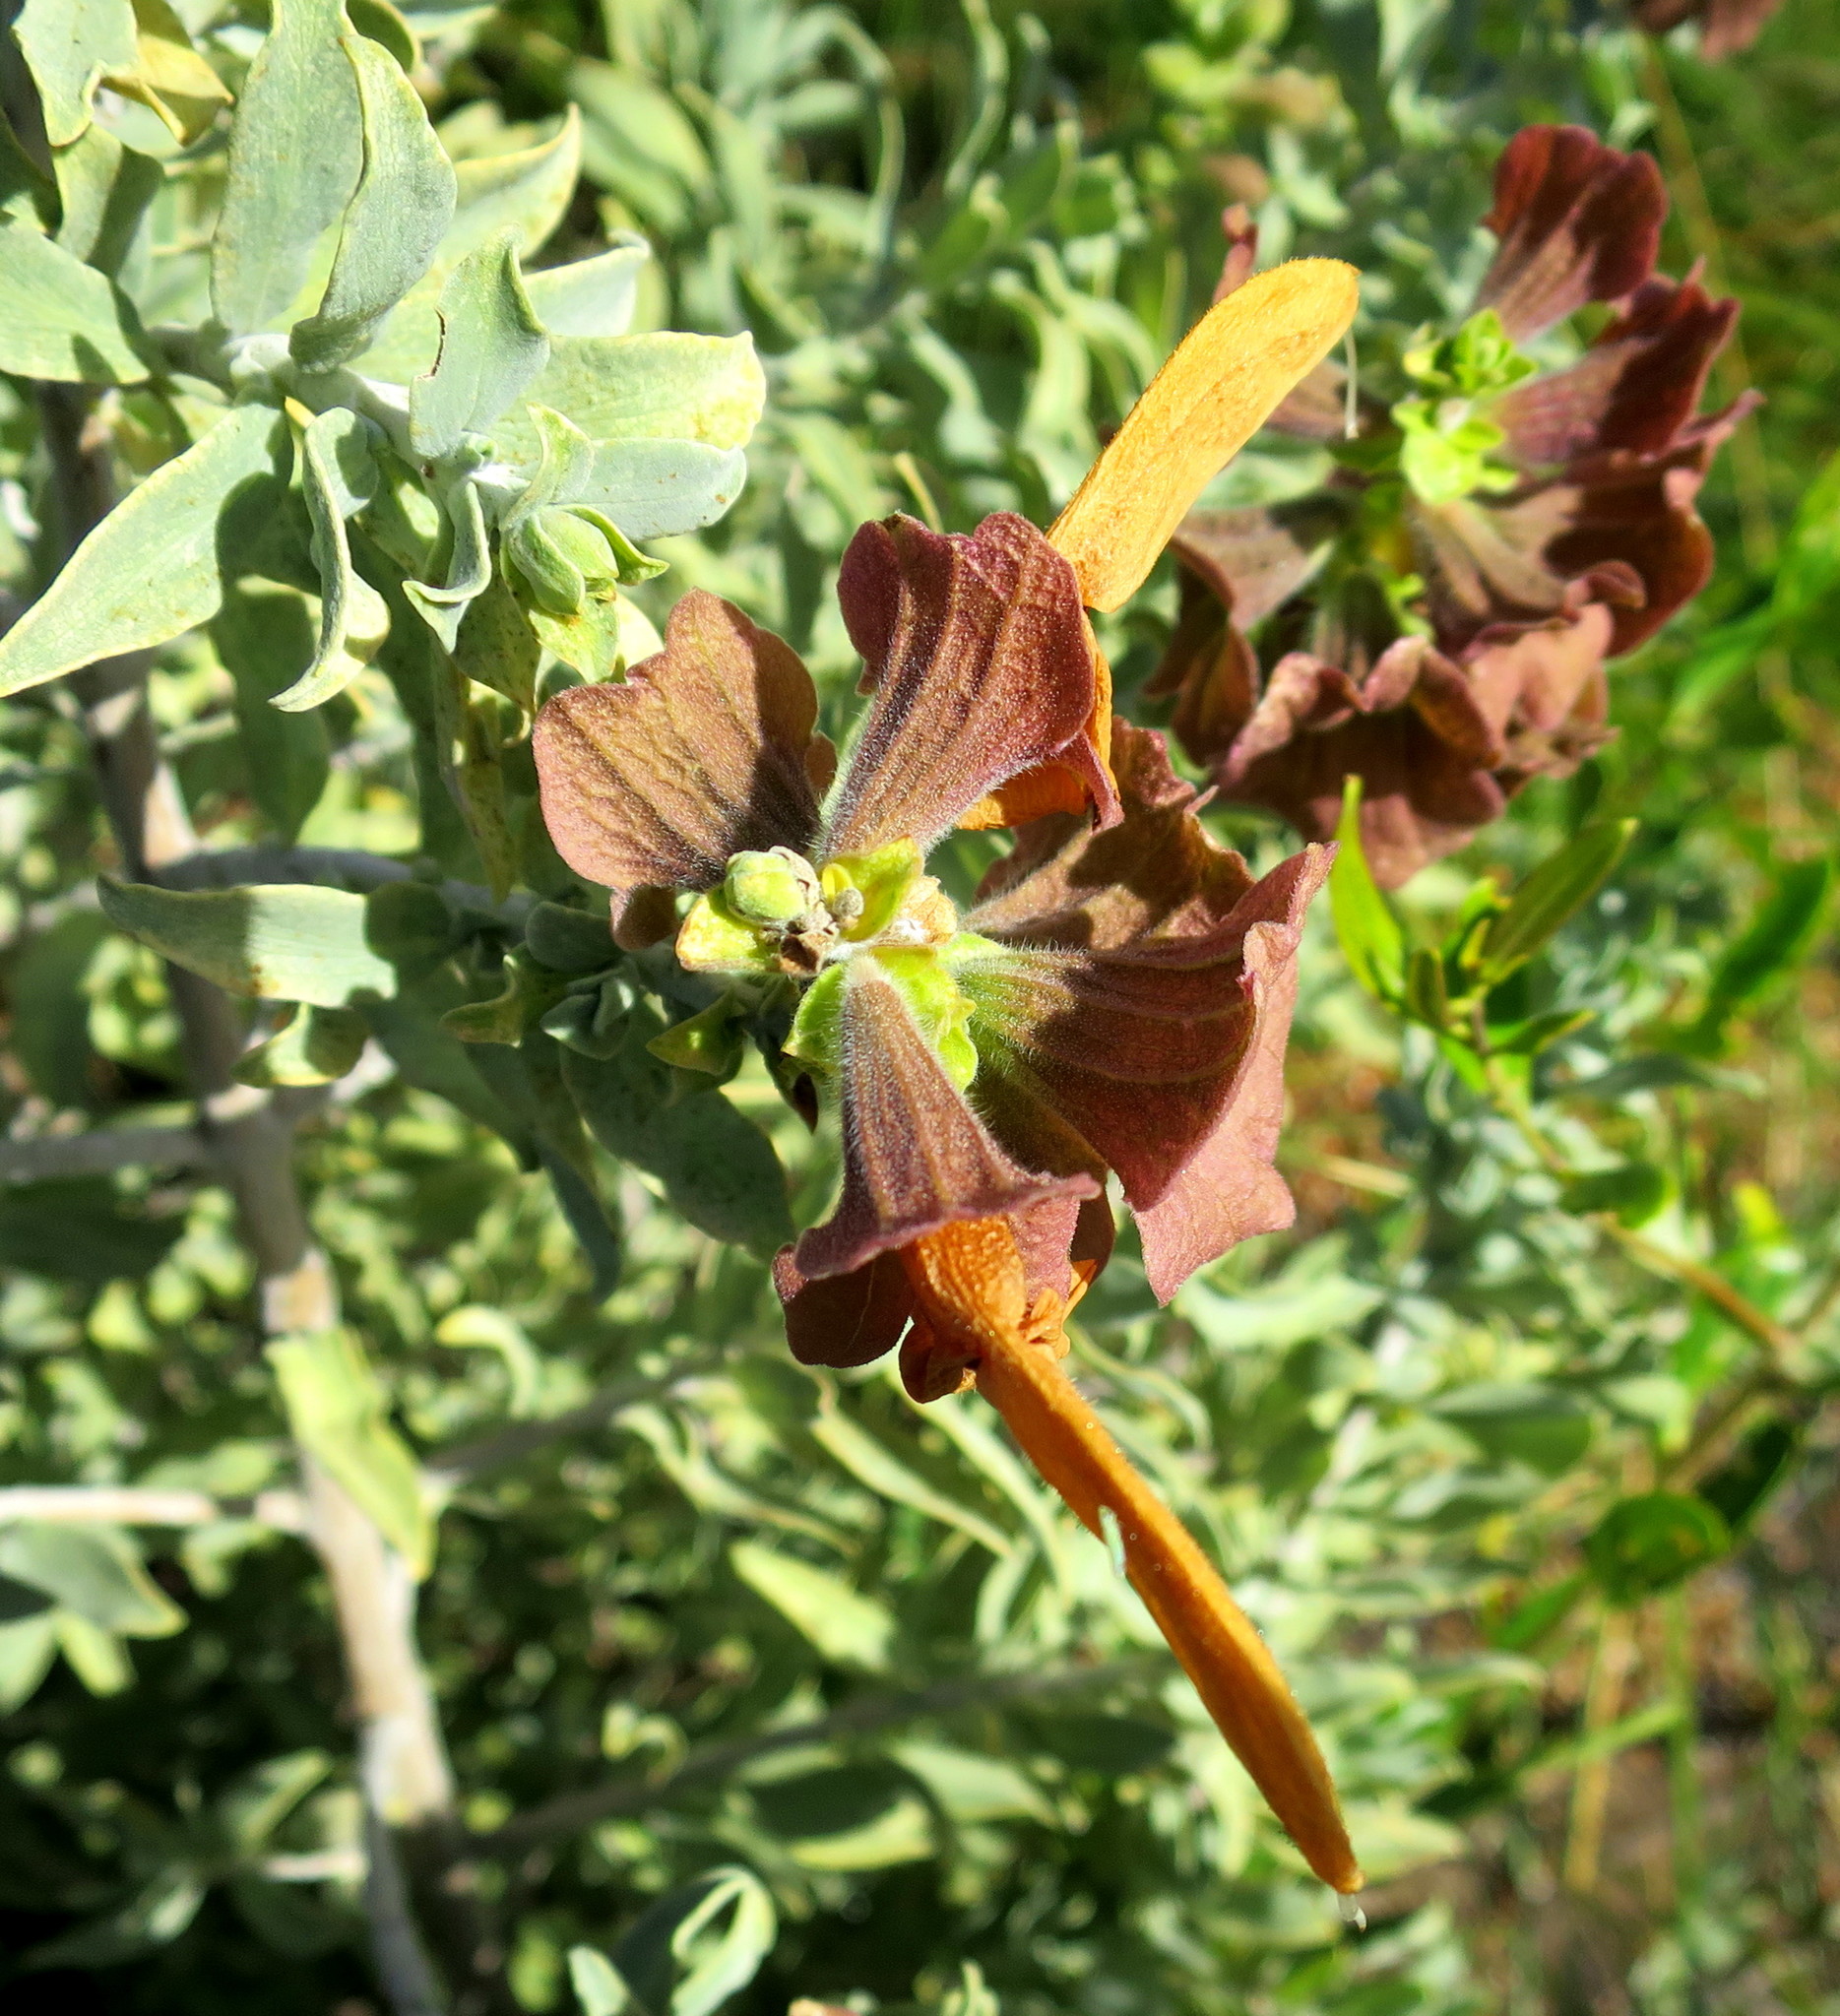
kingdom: Plantae
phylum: Tracheophyta
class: Magnoliopsida
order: Lamiales
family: Lamiaceae
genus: Salvia
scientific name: Salvia aurea
